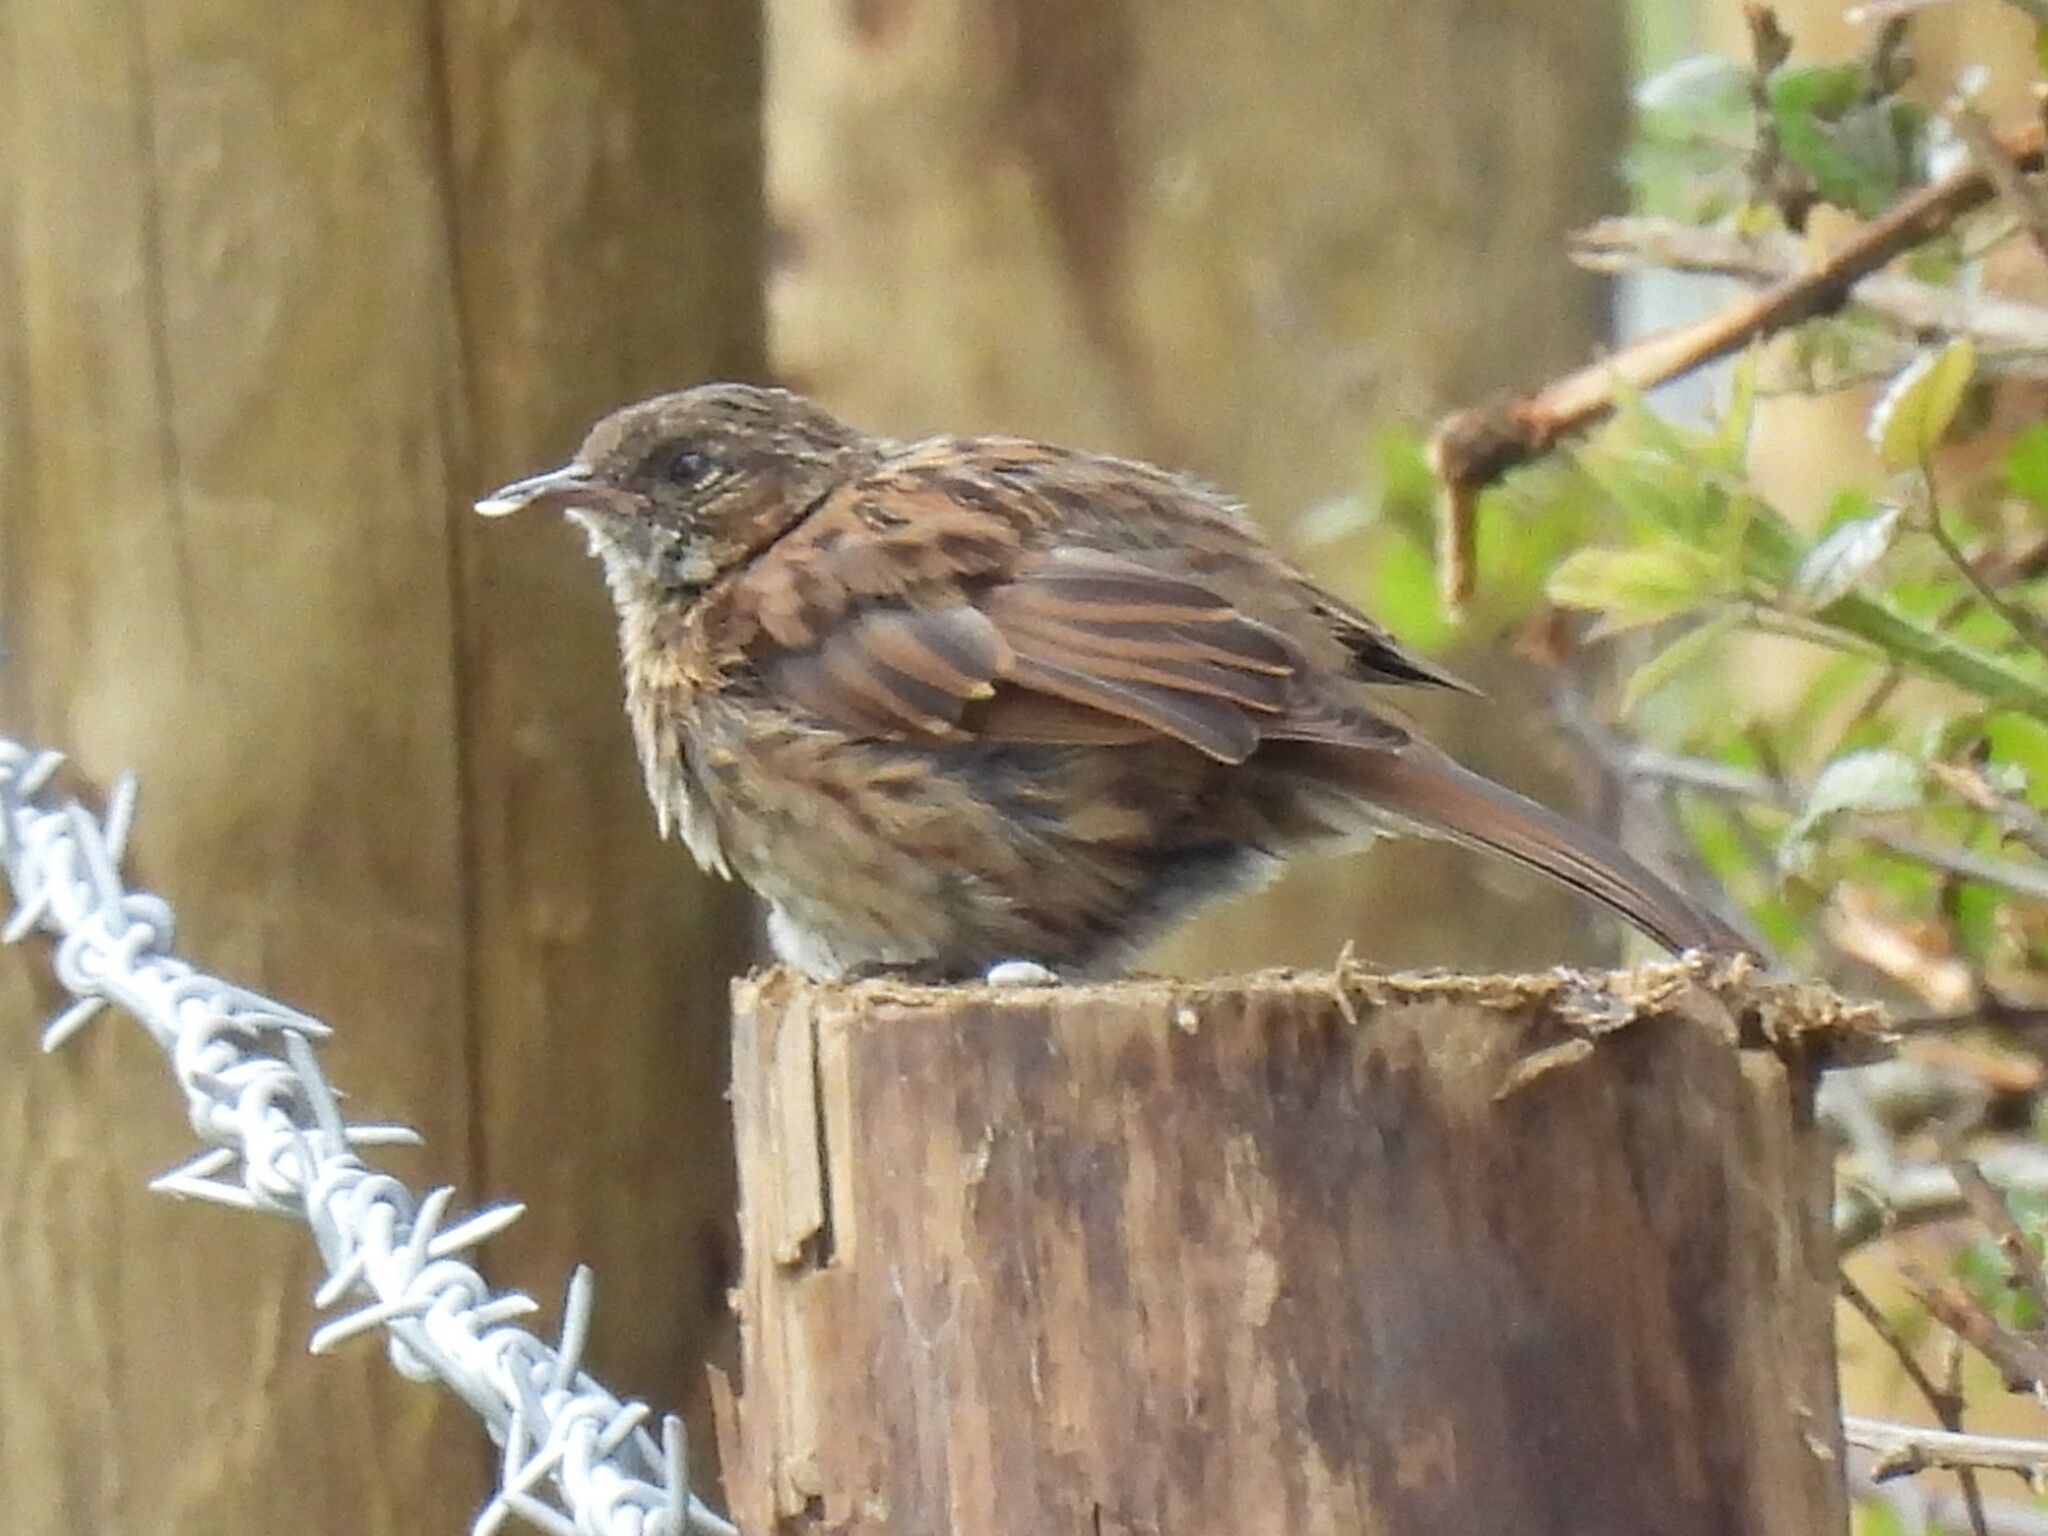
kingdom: Animalia
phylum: Chordata
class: Aves
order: Passeriformes
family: Prunellidae
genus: Prunella
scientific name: Prunella modularis
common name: Dunnock
